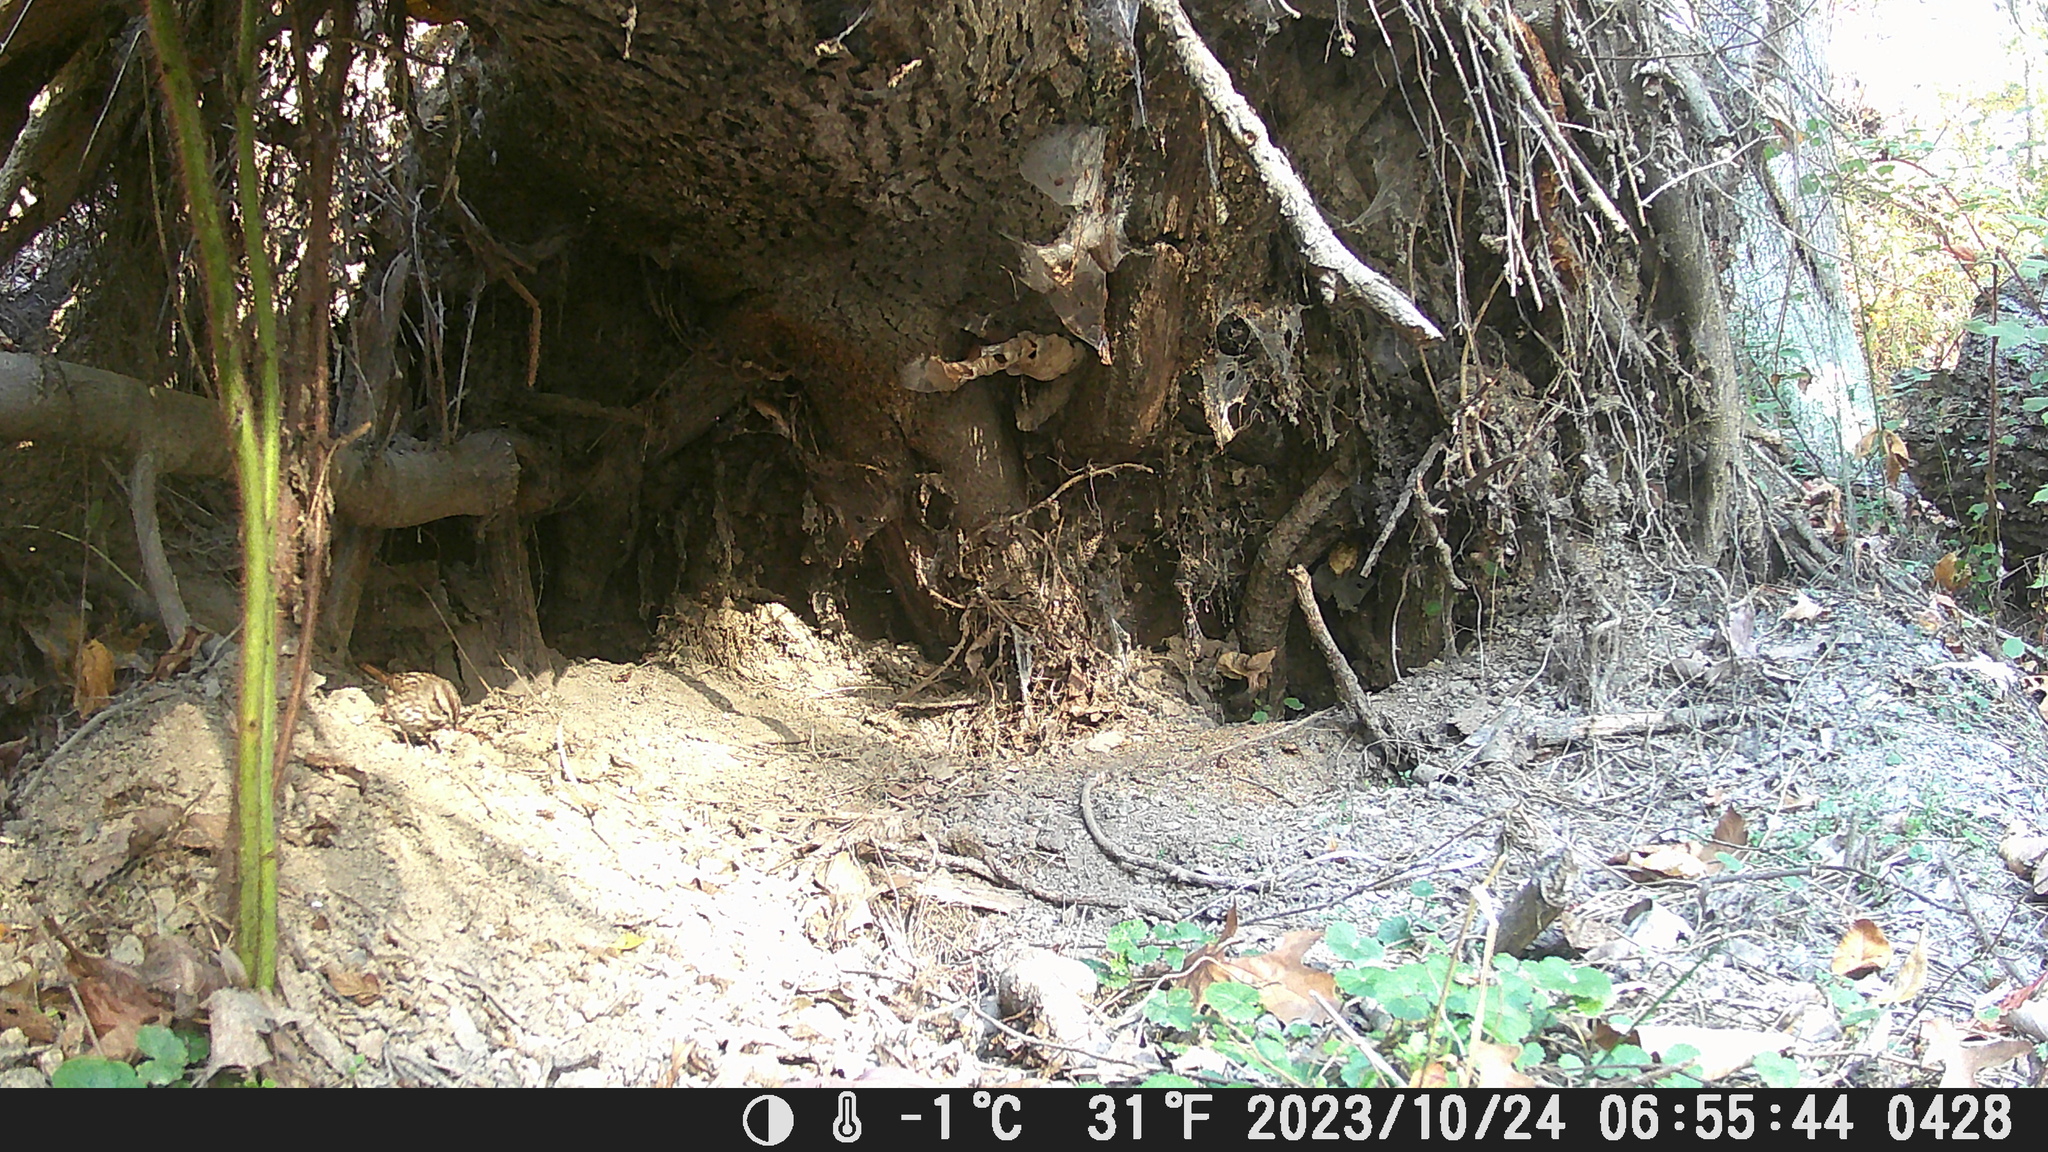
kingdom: Animalia
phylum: Chordata
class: Aves
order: Passeriformes
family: Passerellidae
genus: Melospiza
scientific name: Melospiza melodia
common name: Song sparrow
